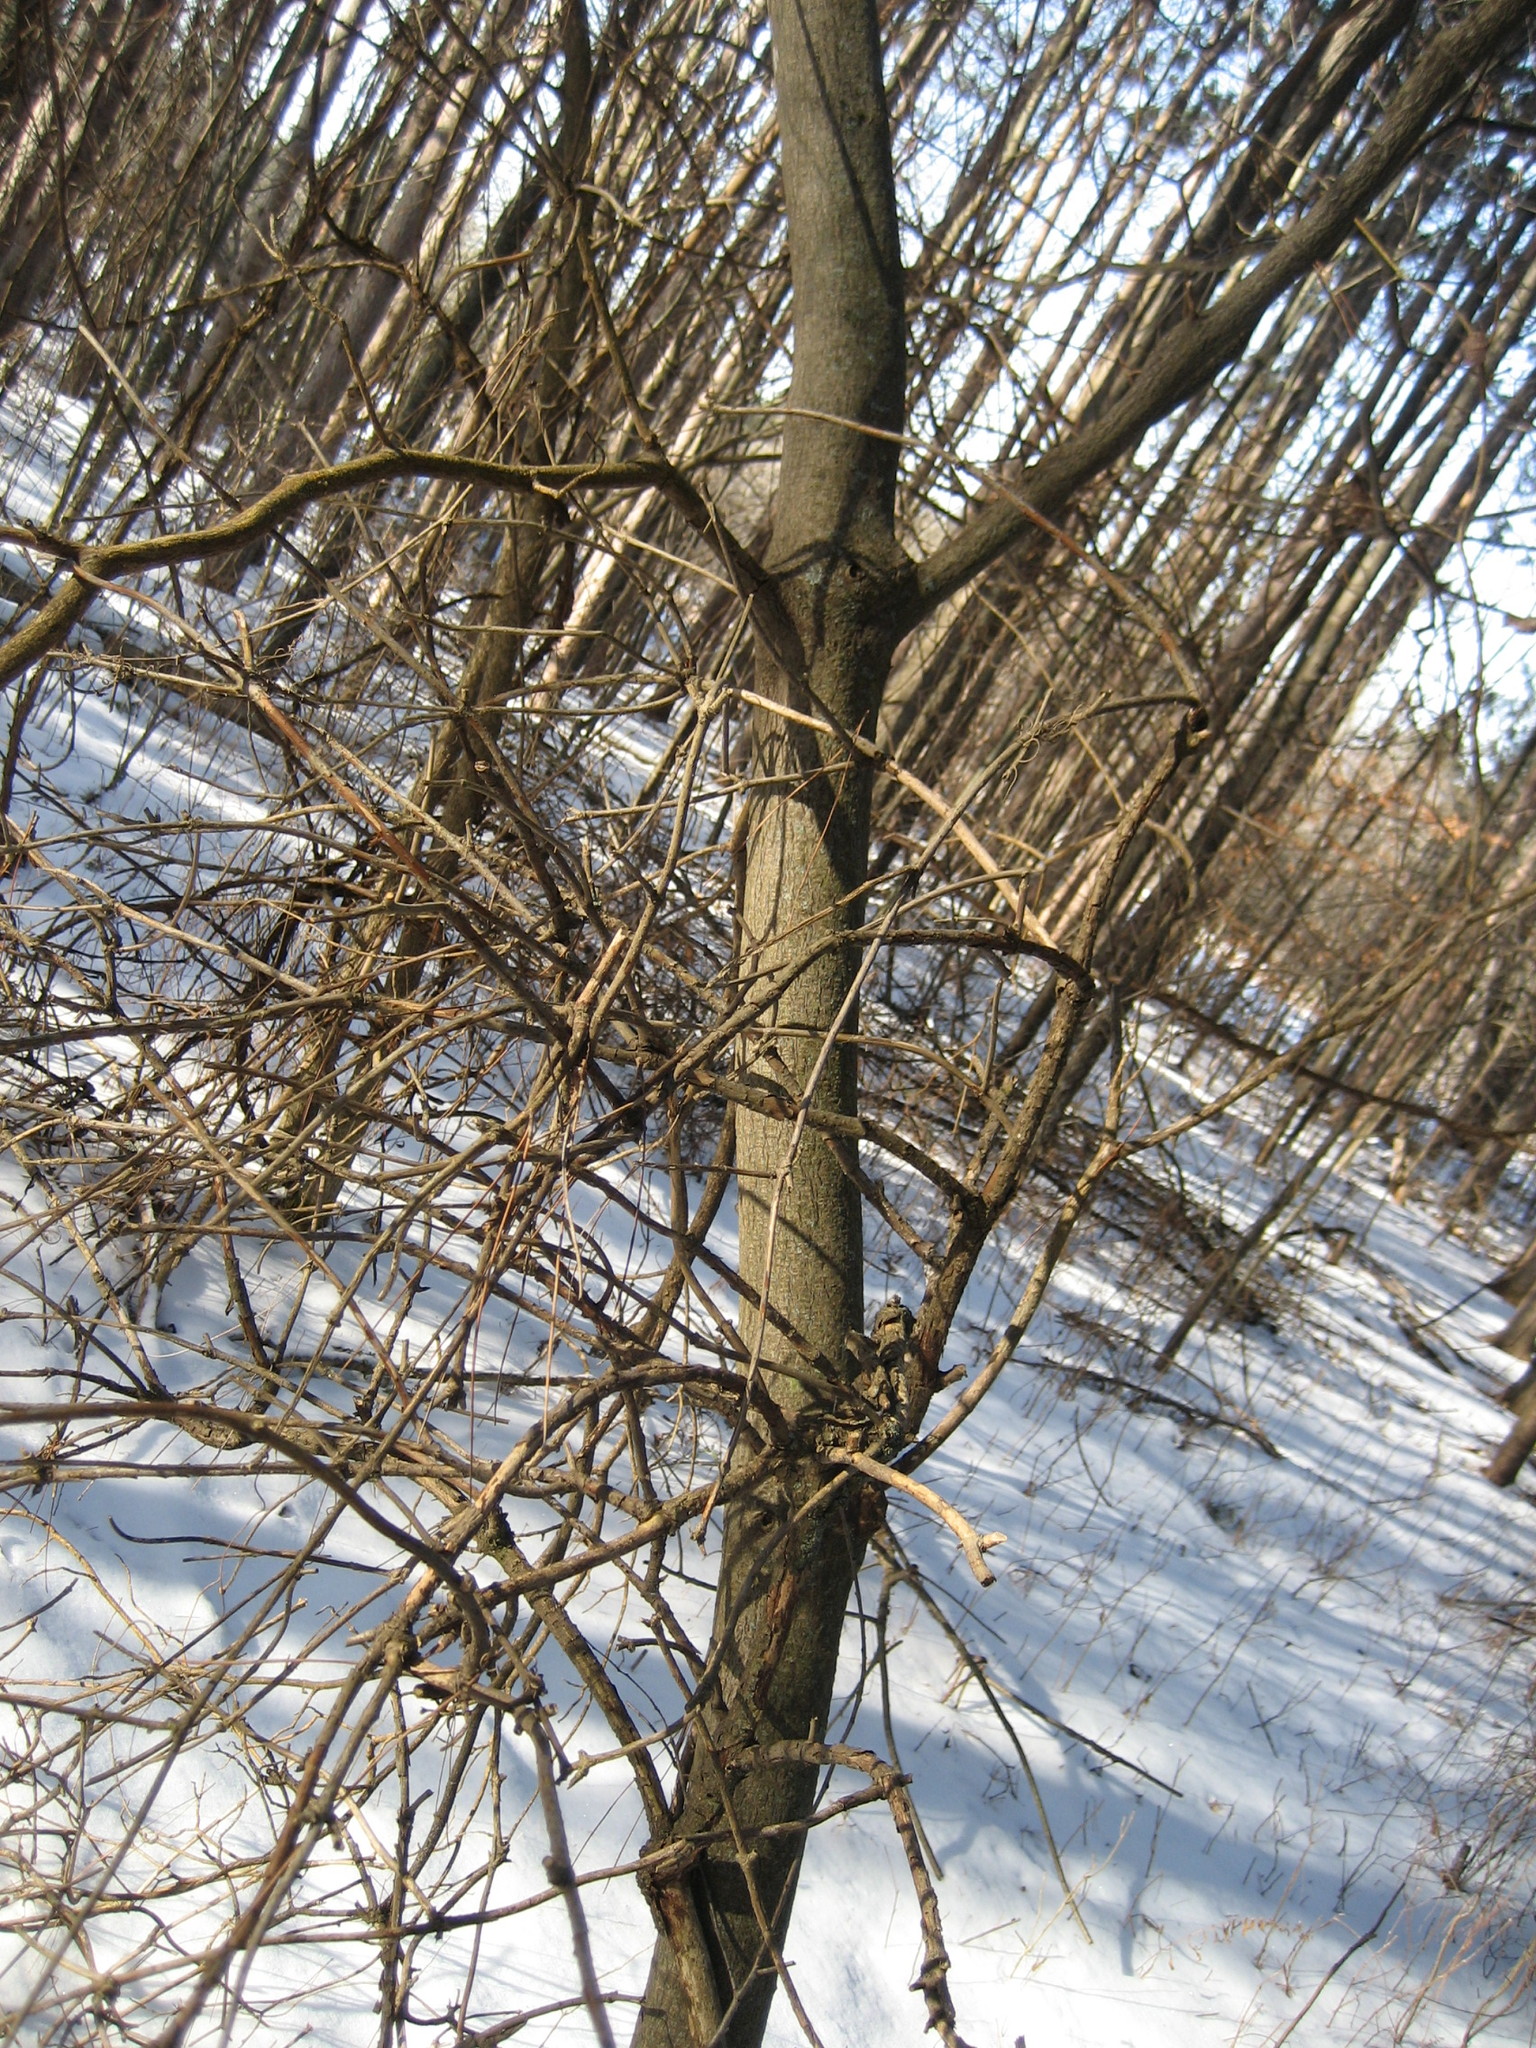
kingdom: Plantae
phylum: Tracheophyta
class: Magnoliopsida
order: Cornales
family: Cornaceae
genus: Cornus
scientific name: Cornus alternifolia
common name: Pagoda dogwood
